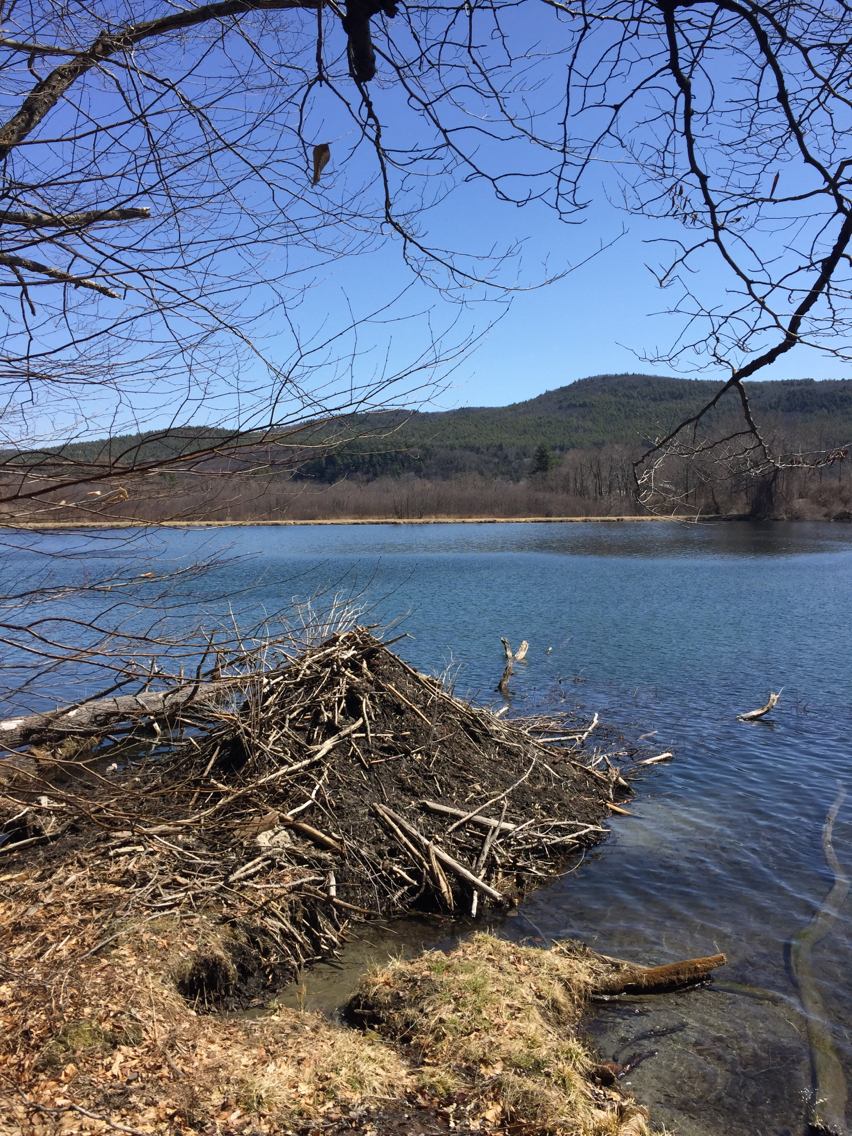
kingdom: Animalia
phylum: Chordata
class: Mammalia
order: Rodentia
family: Castoridae
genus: Castor
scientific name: Castor canadensis
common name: American beaver
